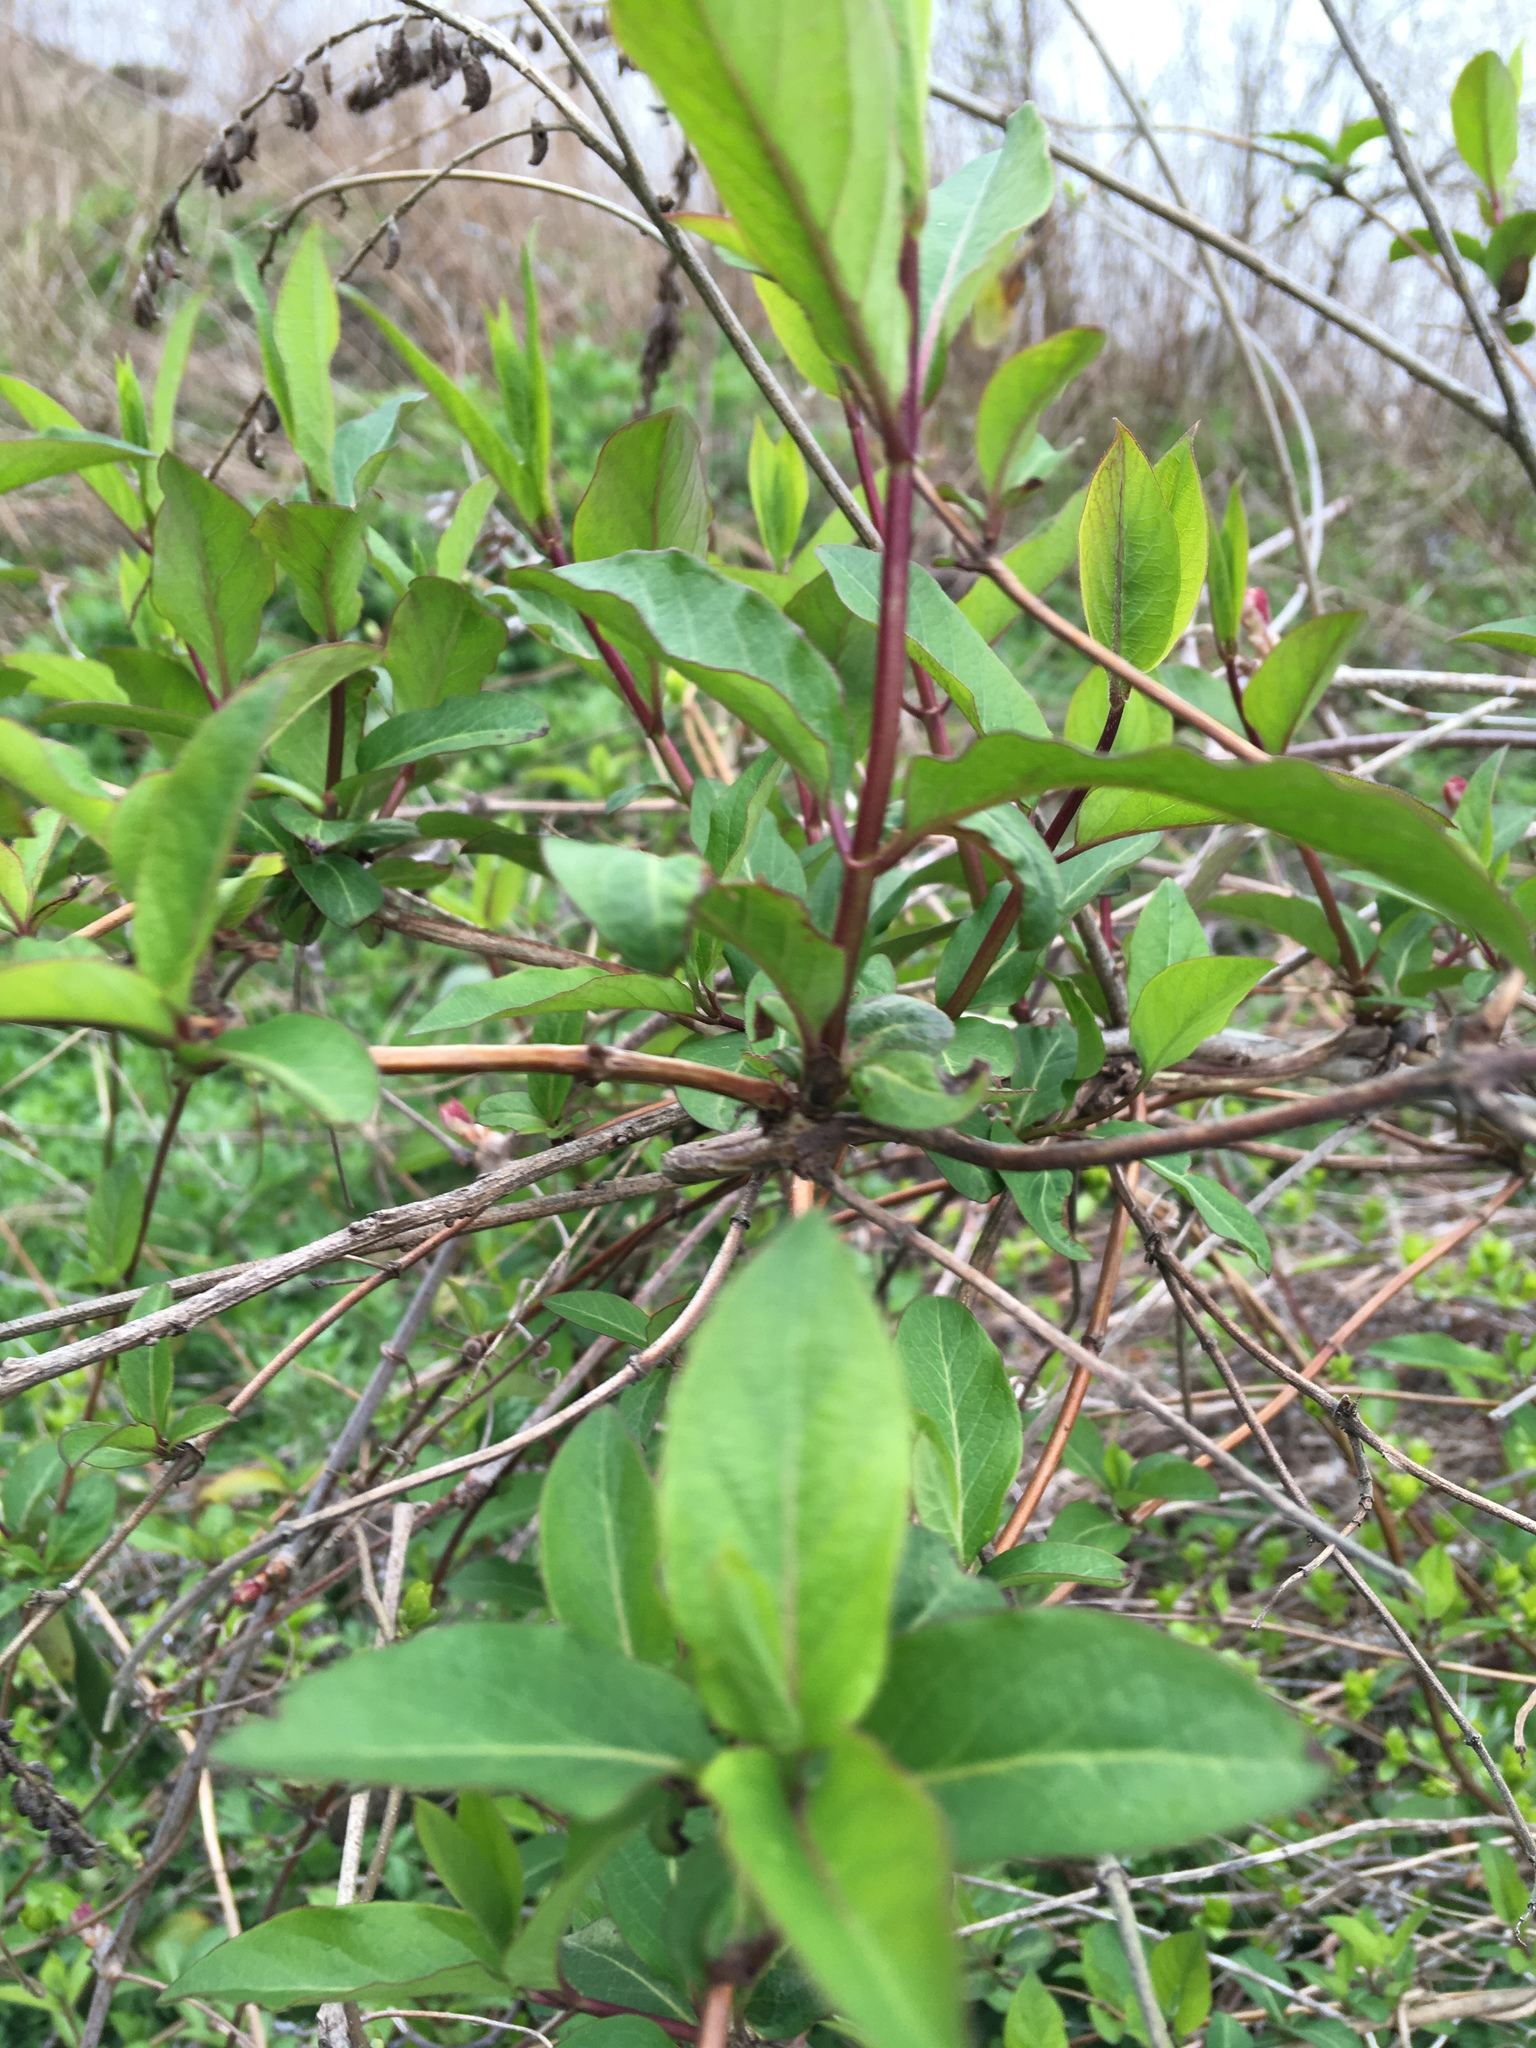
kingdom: Plantae
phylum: Tracheophyta
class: Magnoliopsida
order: Dipsacales
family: Caprifoliaceae
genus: Lonicera
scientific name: Lonicera japonica
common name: Japanese honeysuckle
